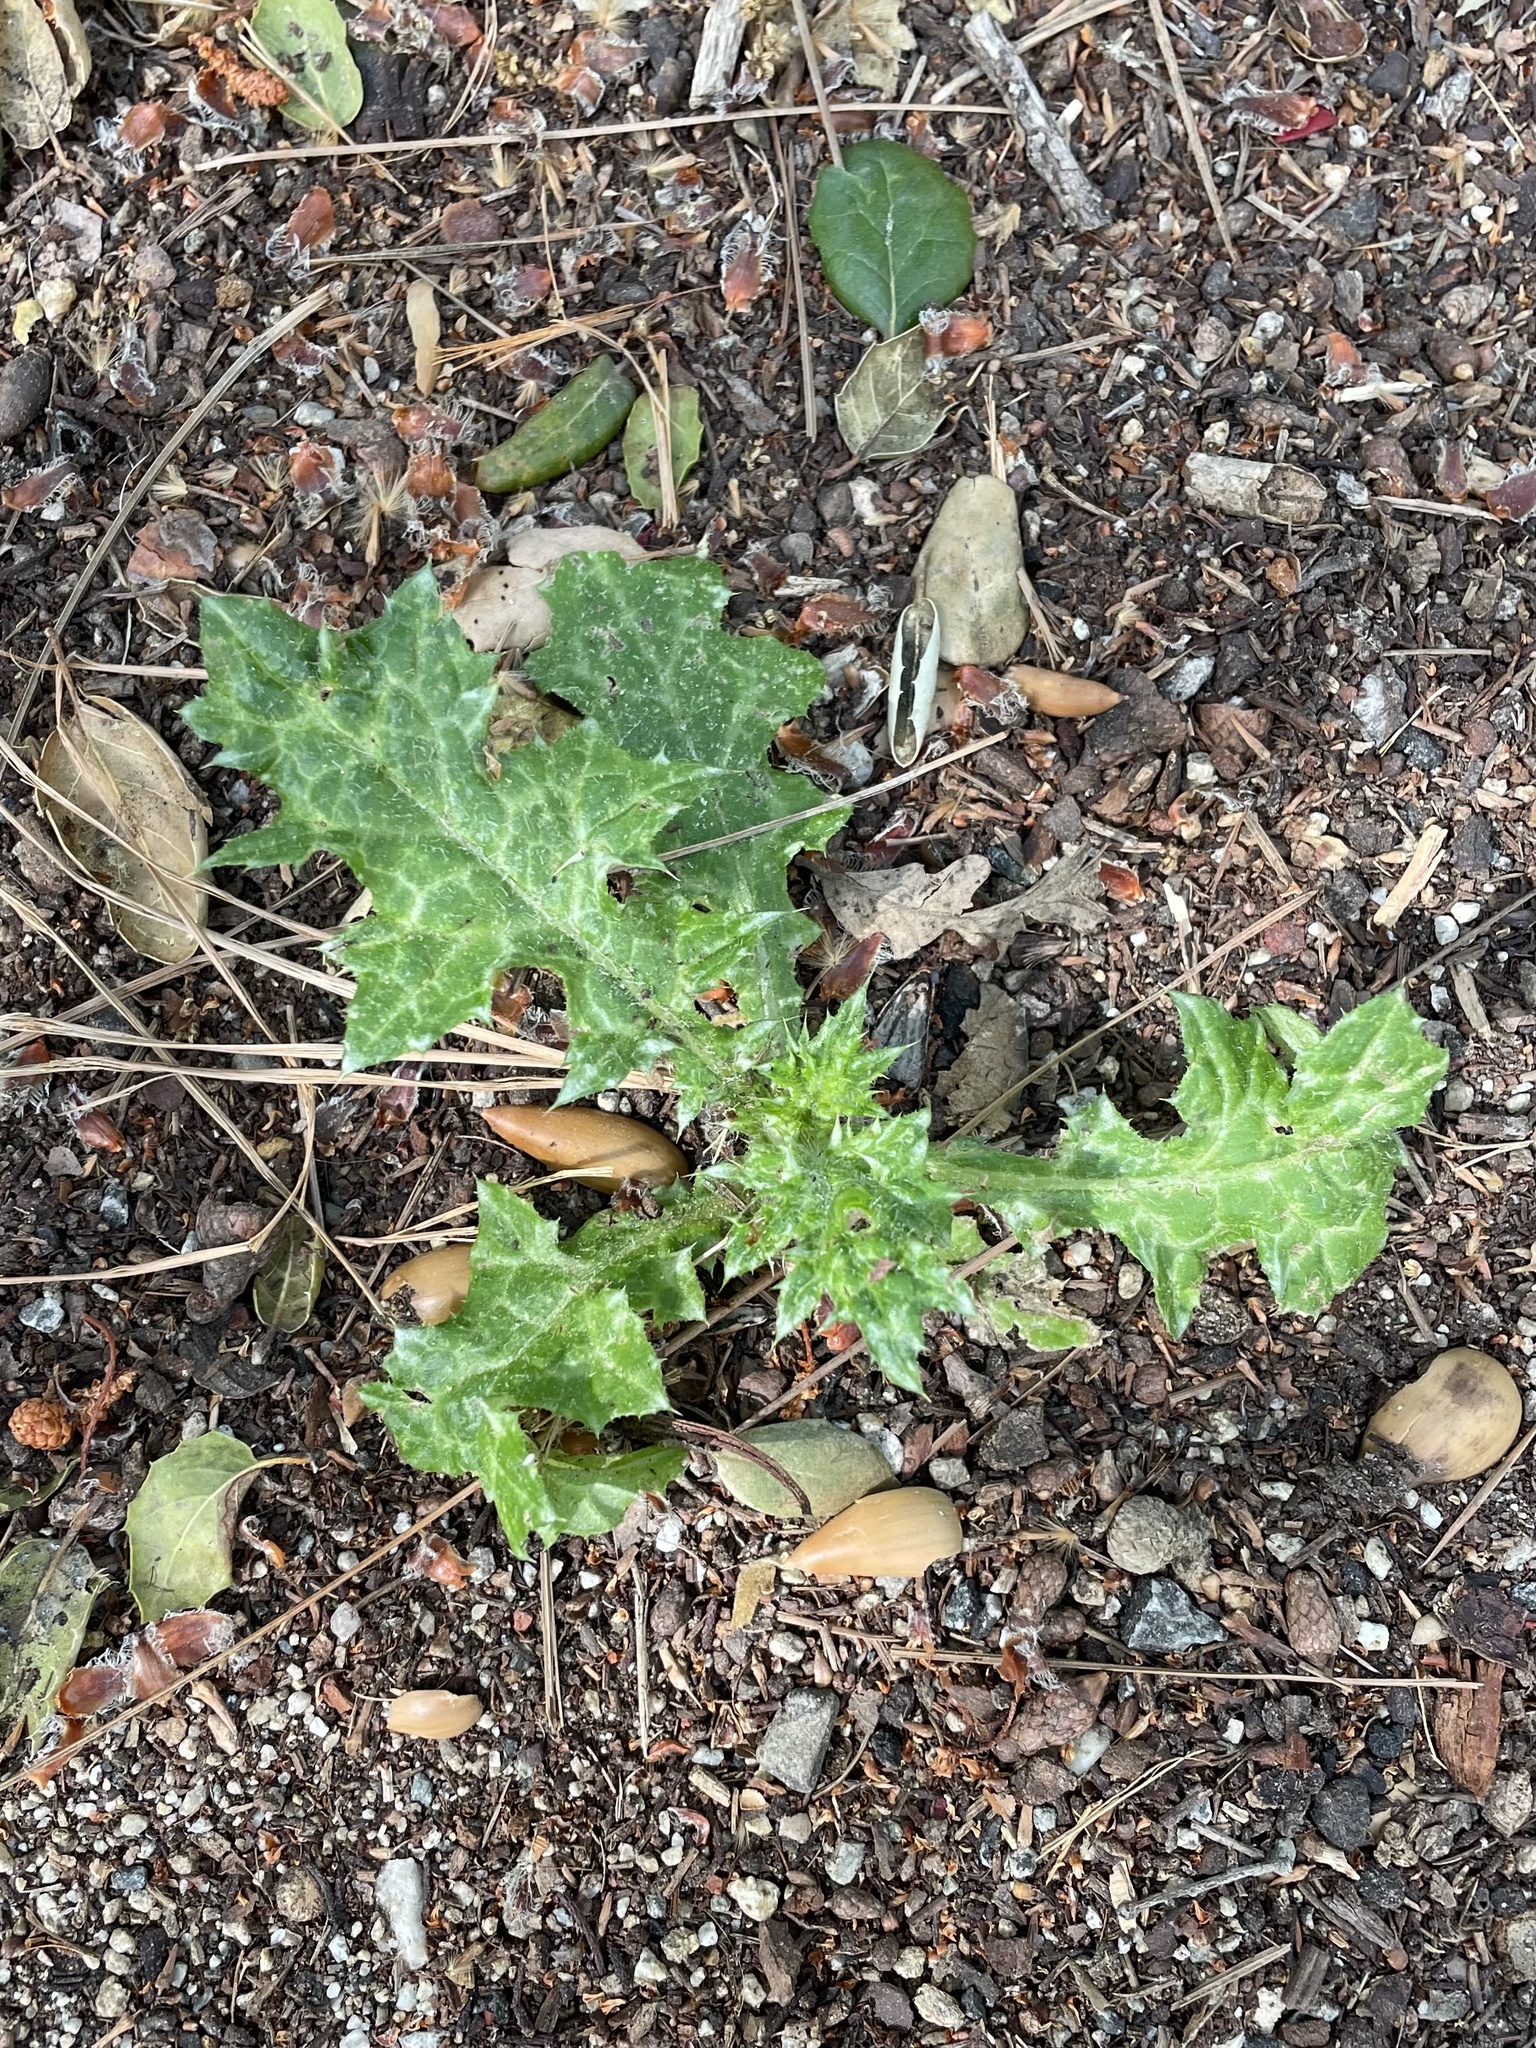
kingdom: Plantae
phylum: Tracheophyta
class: Magnoliopsida
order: Asterales
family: Asteraceae
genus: Carduus
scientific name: Carduus pycnocephalus
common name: Plymouth thistle
